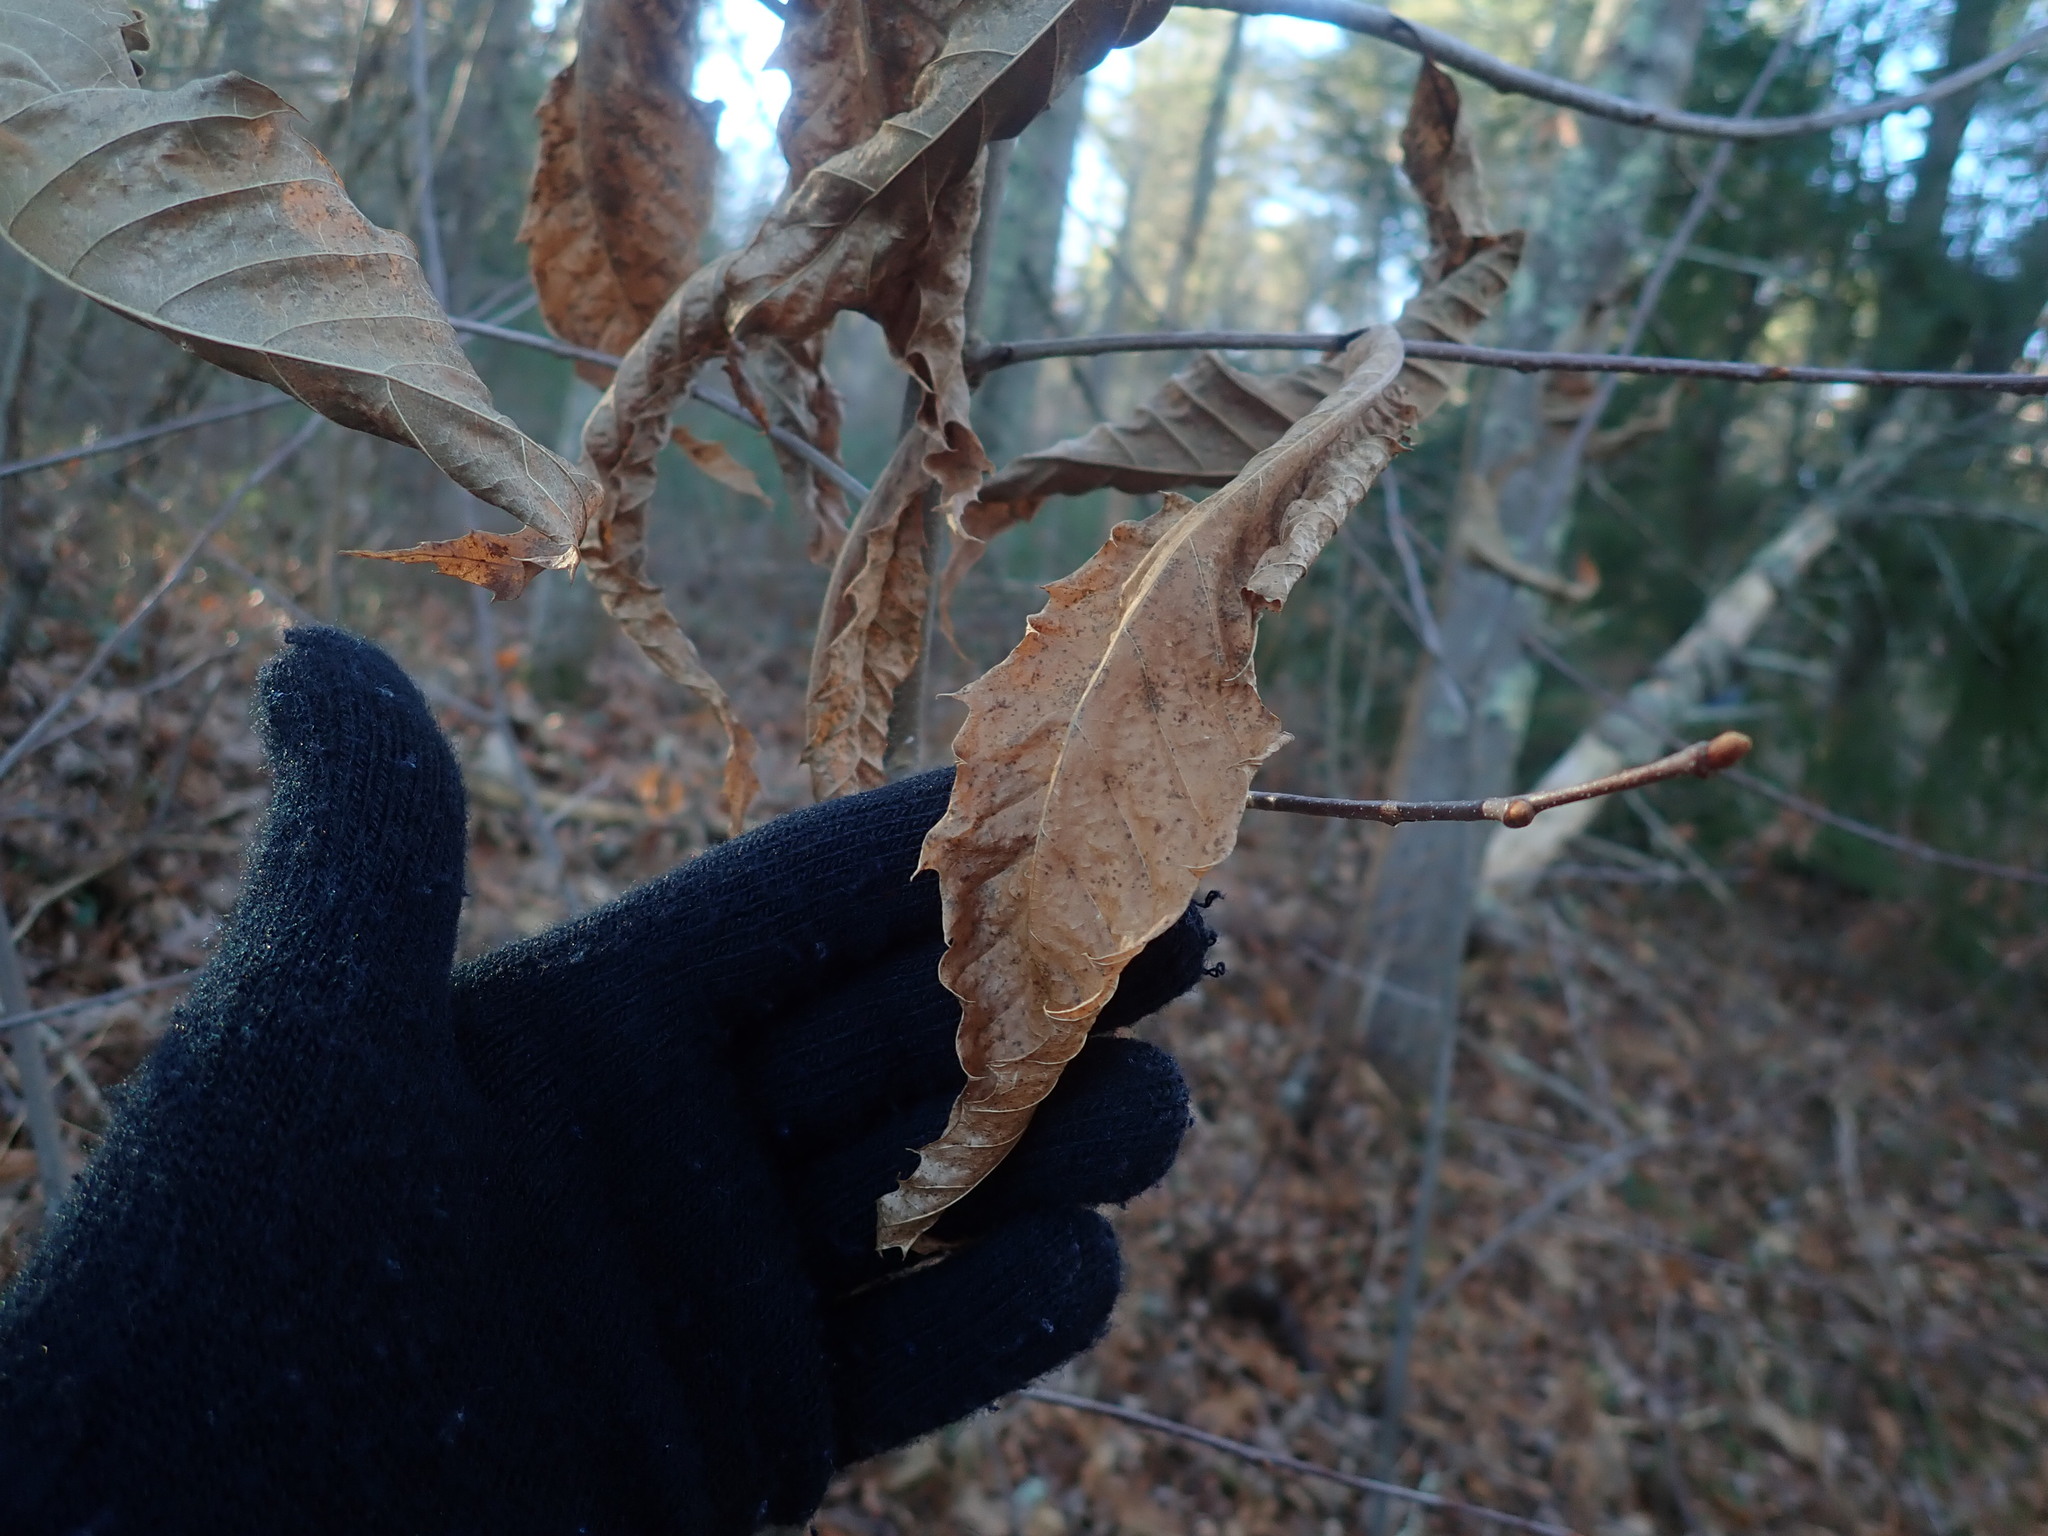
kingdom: Plantae
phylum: Tracheophyta
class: Magnoliopsida
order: Fagales
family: Fagaceae
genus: Castanea
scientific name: Castanea dentata
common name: American chestnut
